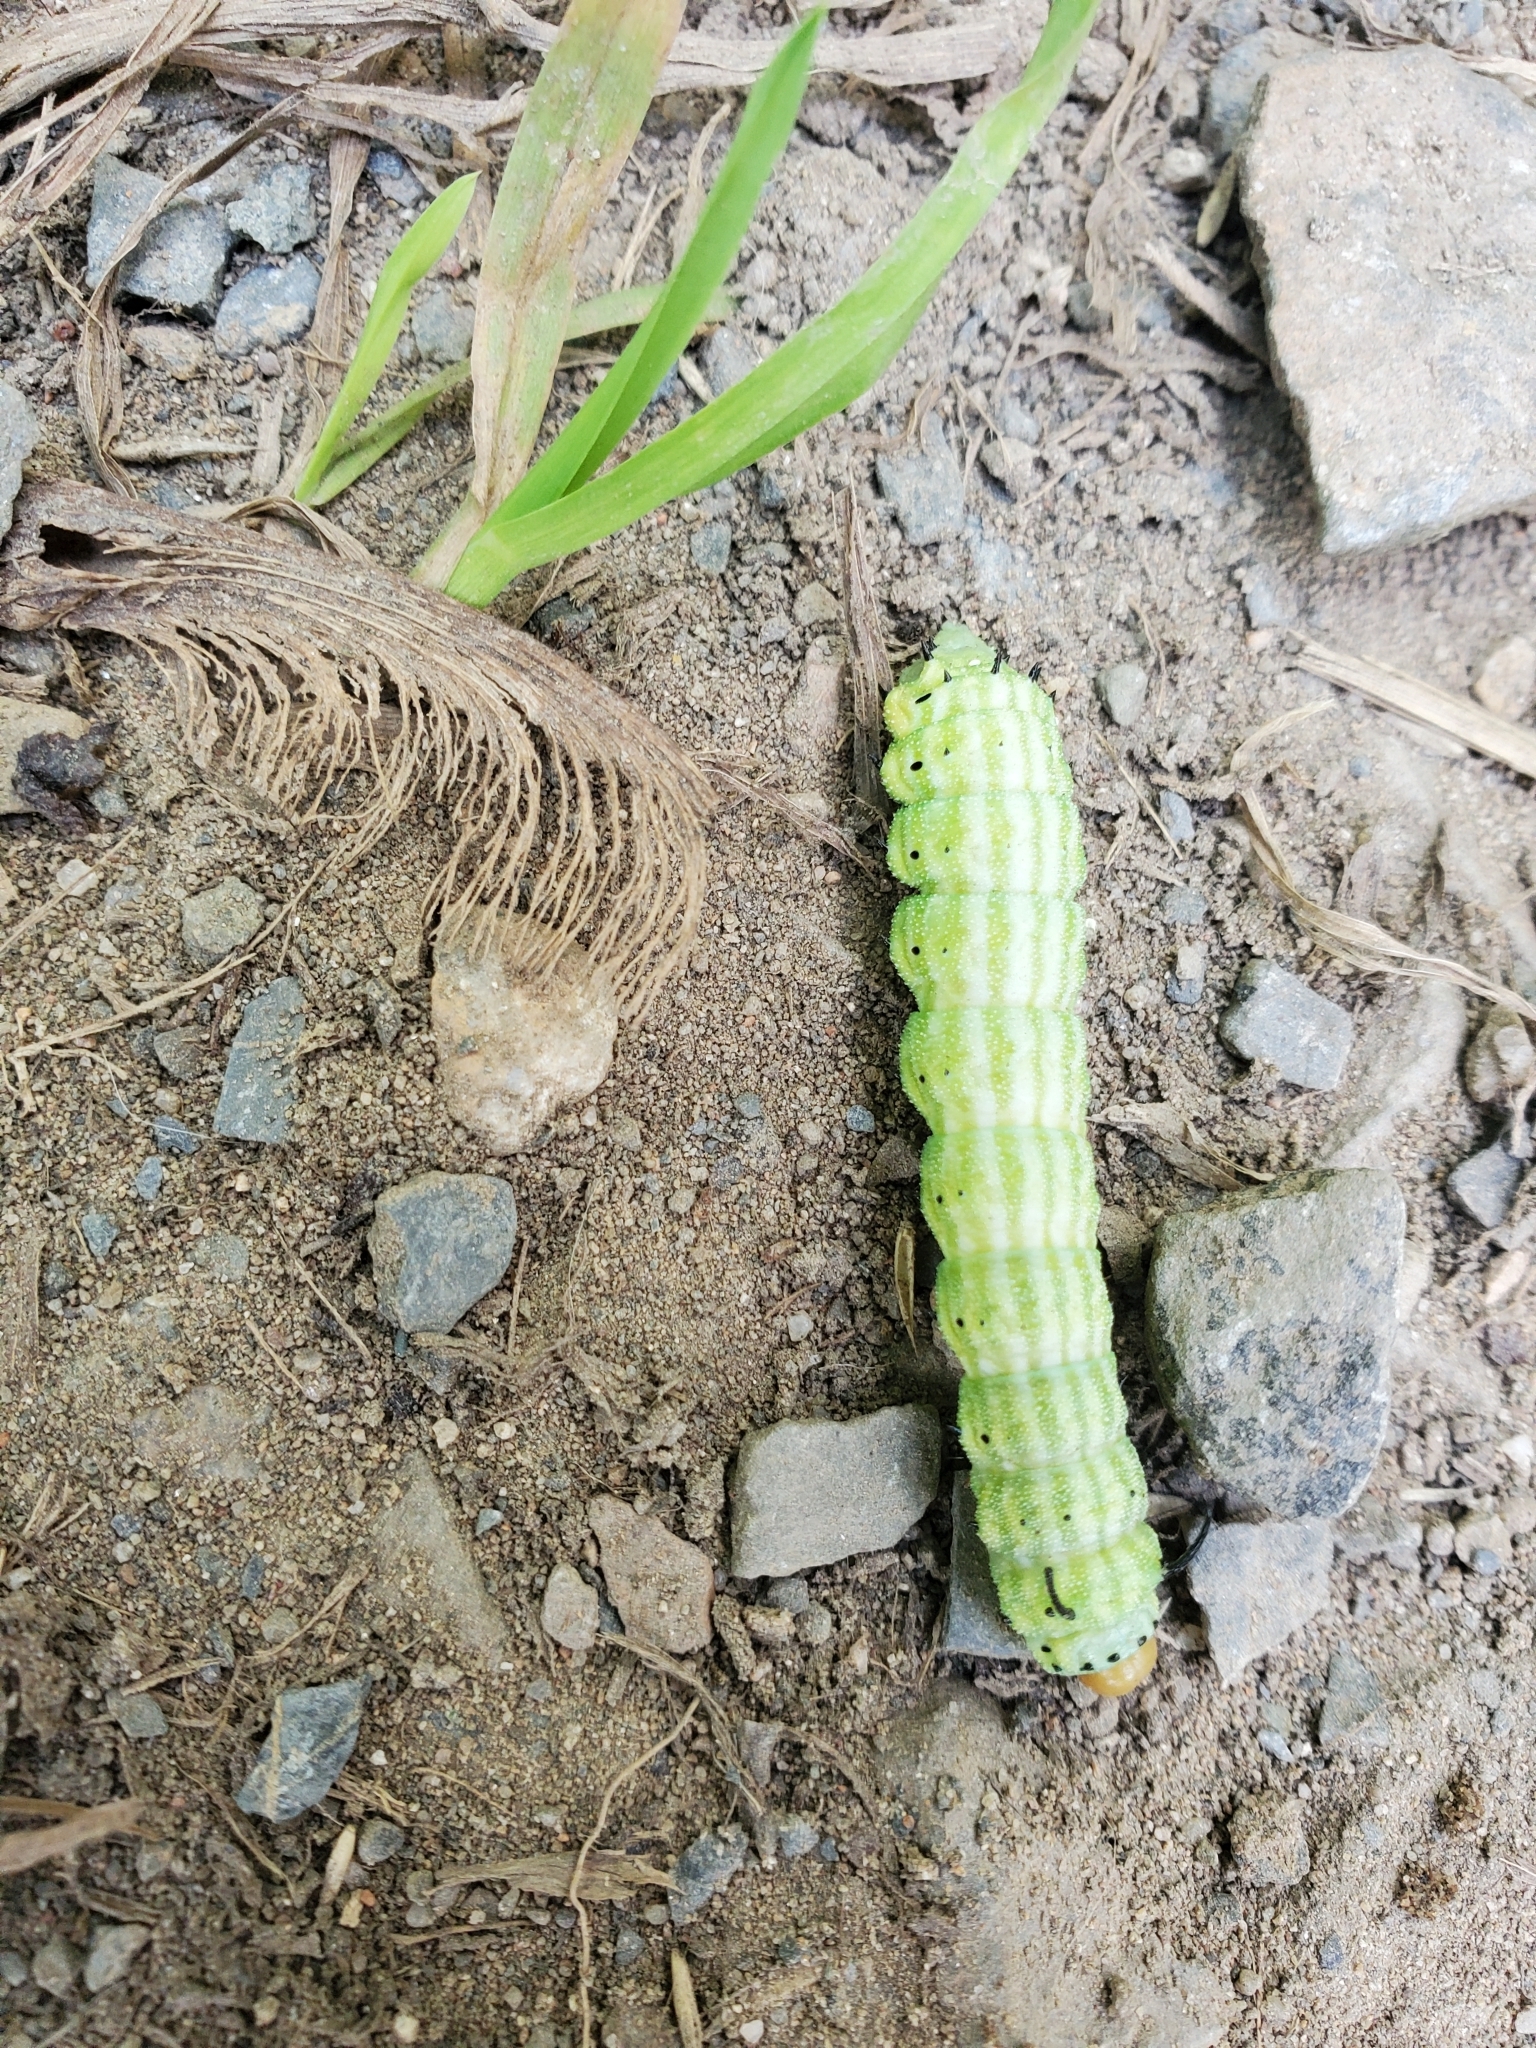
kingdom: Animalia
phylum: Arthropoda
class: Insecta
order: Lepidoptera
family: Saturniidae
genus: Dryocampa
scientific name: Dryocampa rubicunda
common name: Rosy maple moth
